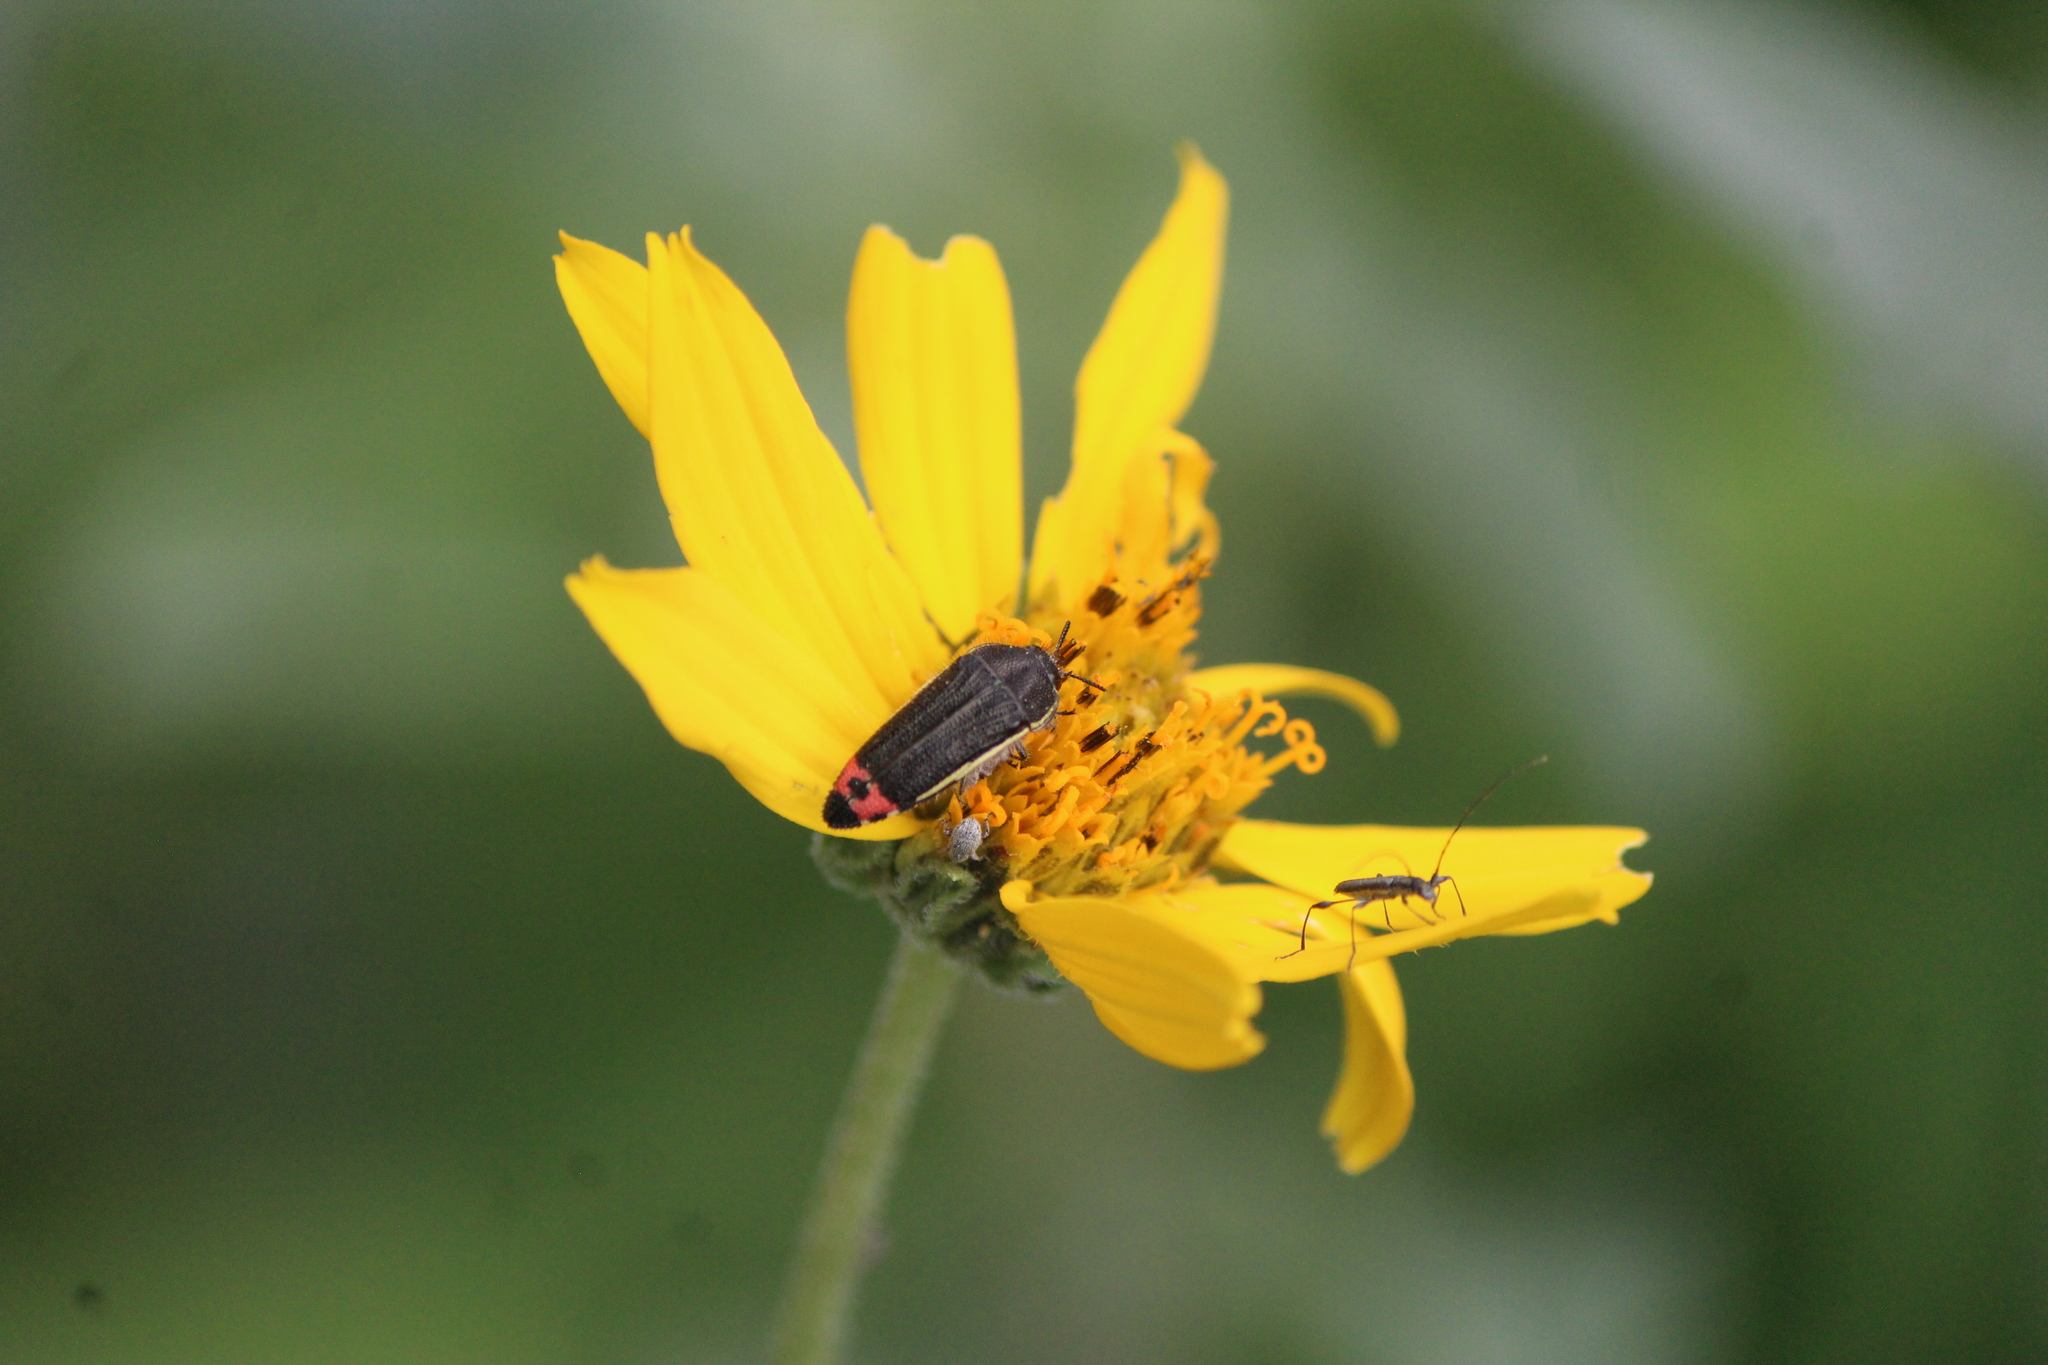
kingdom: Animalia
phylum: Arthropoda
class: Insecta
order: Coleoptera
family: Buprestidae
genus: Acmaeodera
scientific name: Acmaeodera flavomarginata
